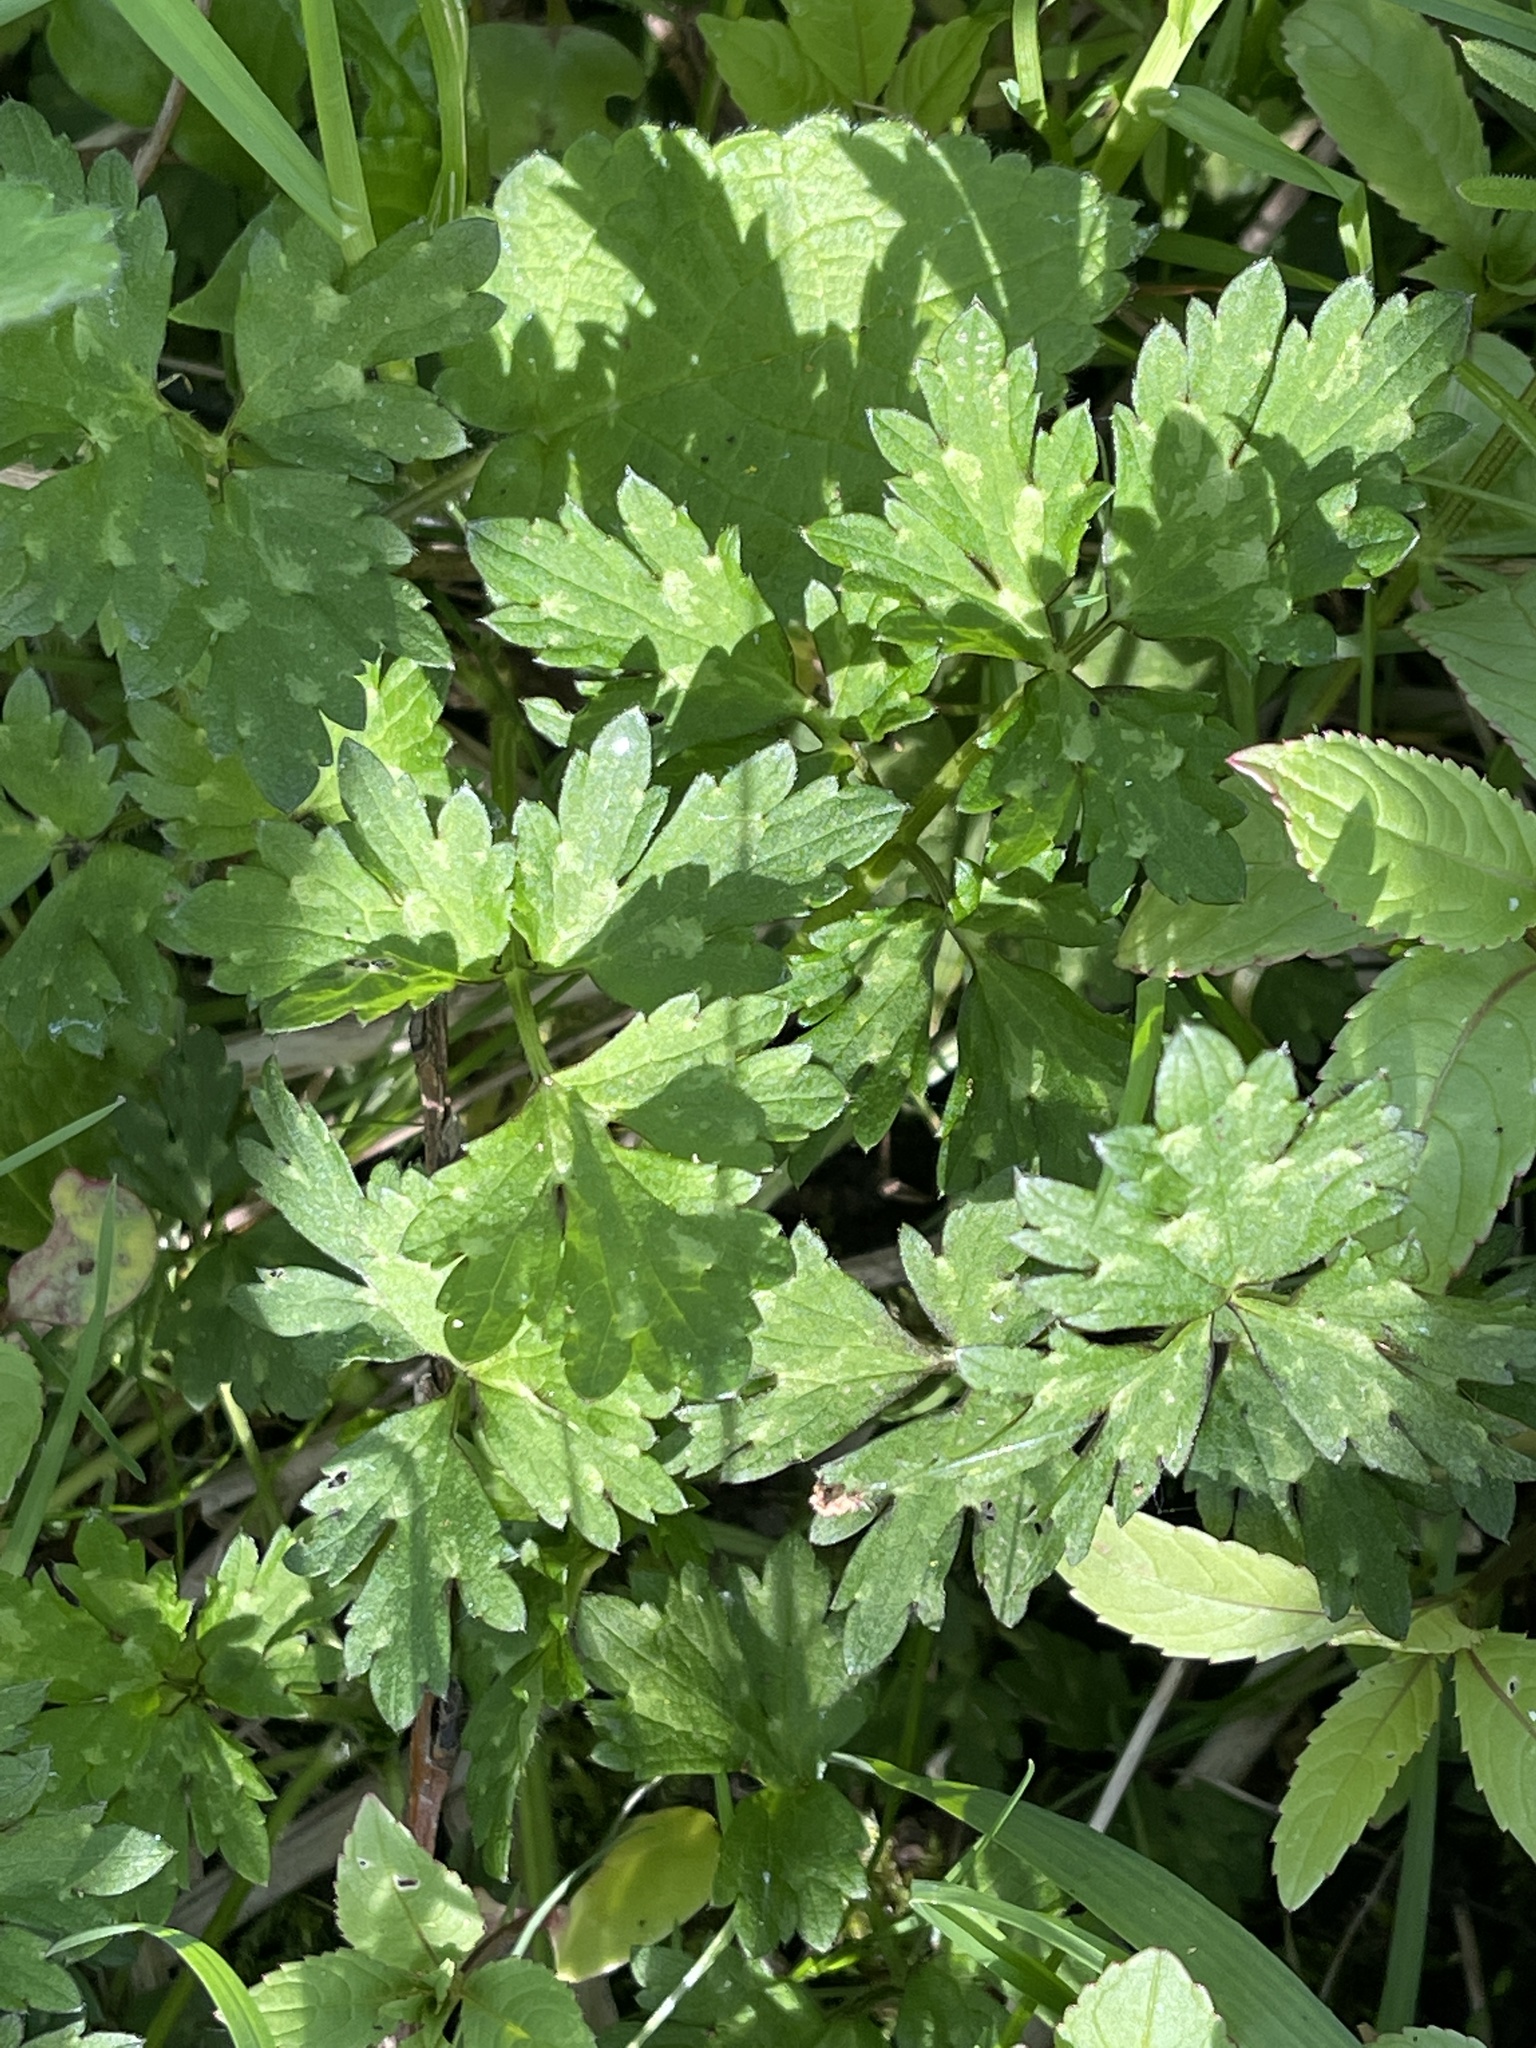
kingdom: Plantae
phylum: Tracheophyta
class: Magnoliopsida
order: Ranunculales
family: Ranunculaceae
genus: Ranunculus
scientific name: Ranunculus repens
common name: Creeping buttercup
